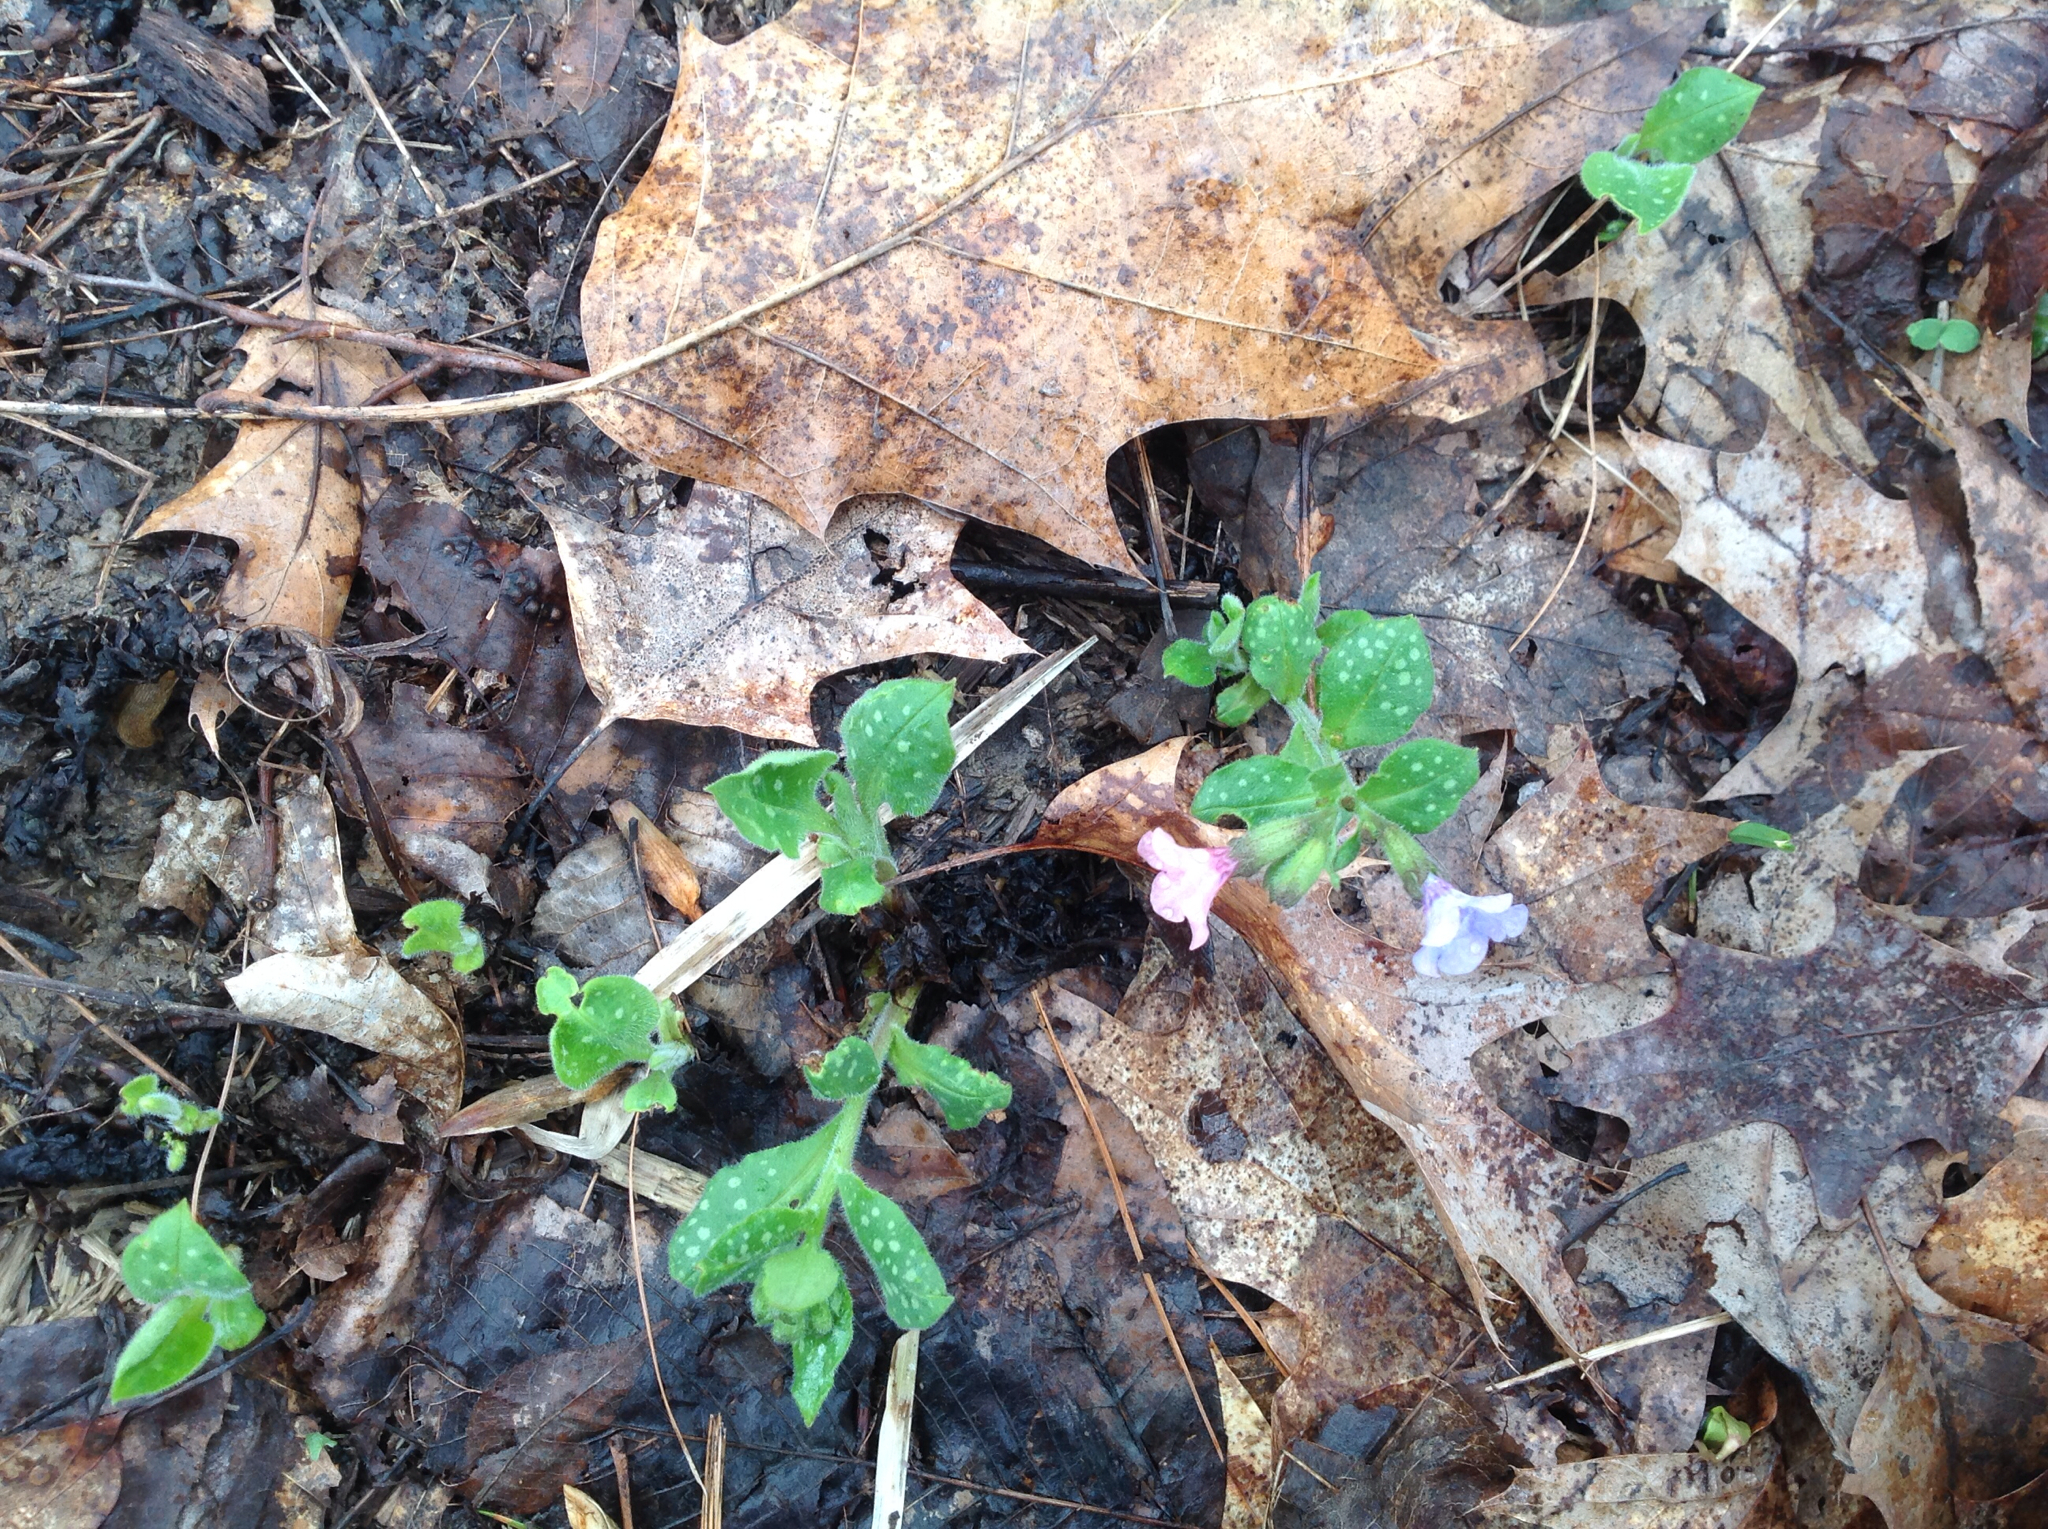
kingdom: Plantae
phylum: Tracheophyta
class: Magnoliopsida
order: Boraginales
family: Boraginaceae
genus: Pulmonaria
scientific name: Pulmonaria officinalis
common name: Lungwort
